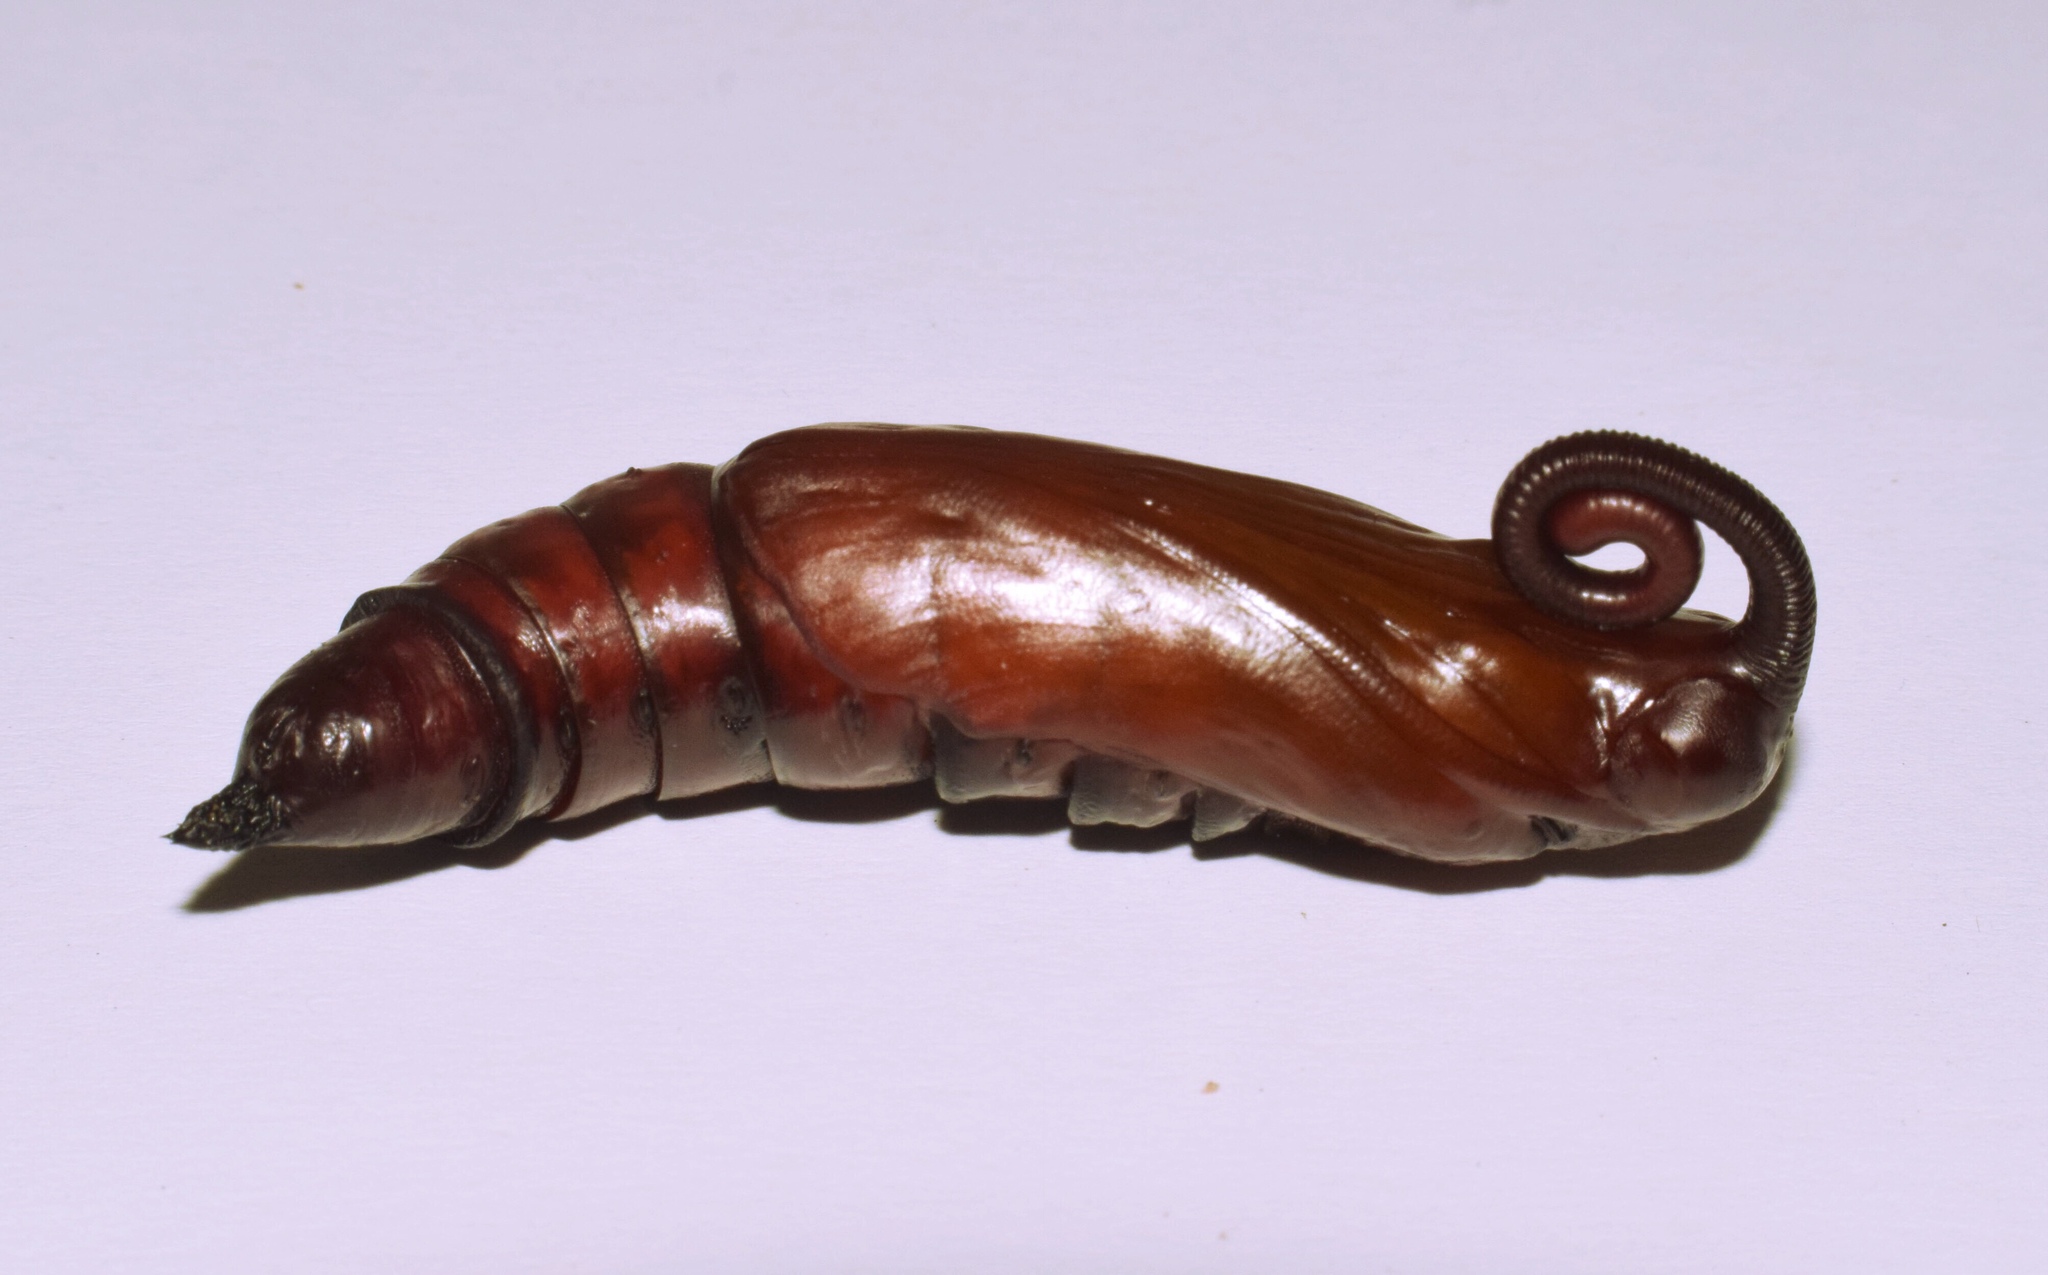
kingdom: Animalia
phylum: Arthropoda
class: Insecta
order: Lepidoptera
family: Sphingidae
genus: Xanthopan
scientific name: Xanthopan morganii
